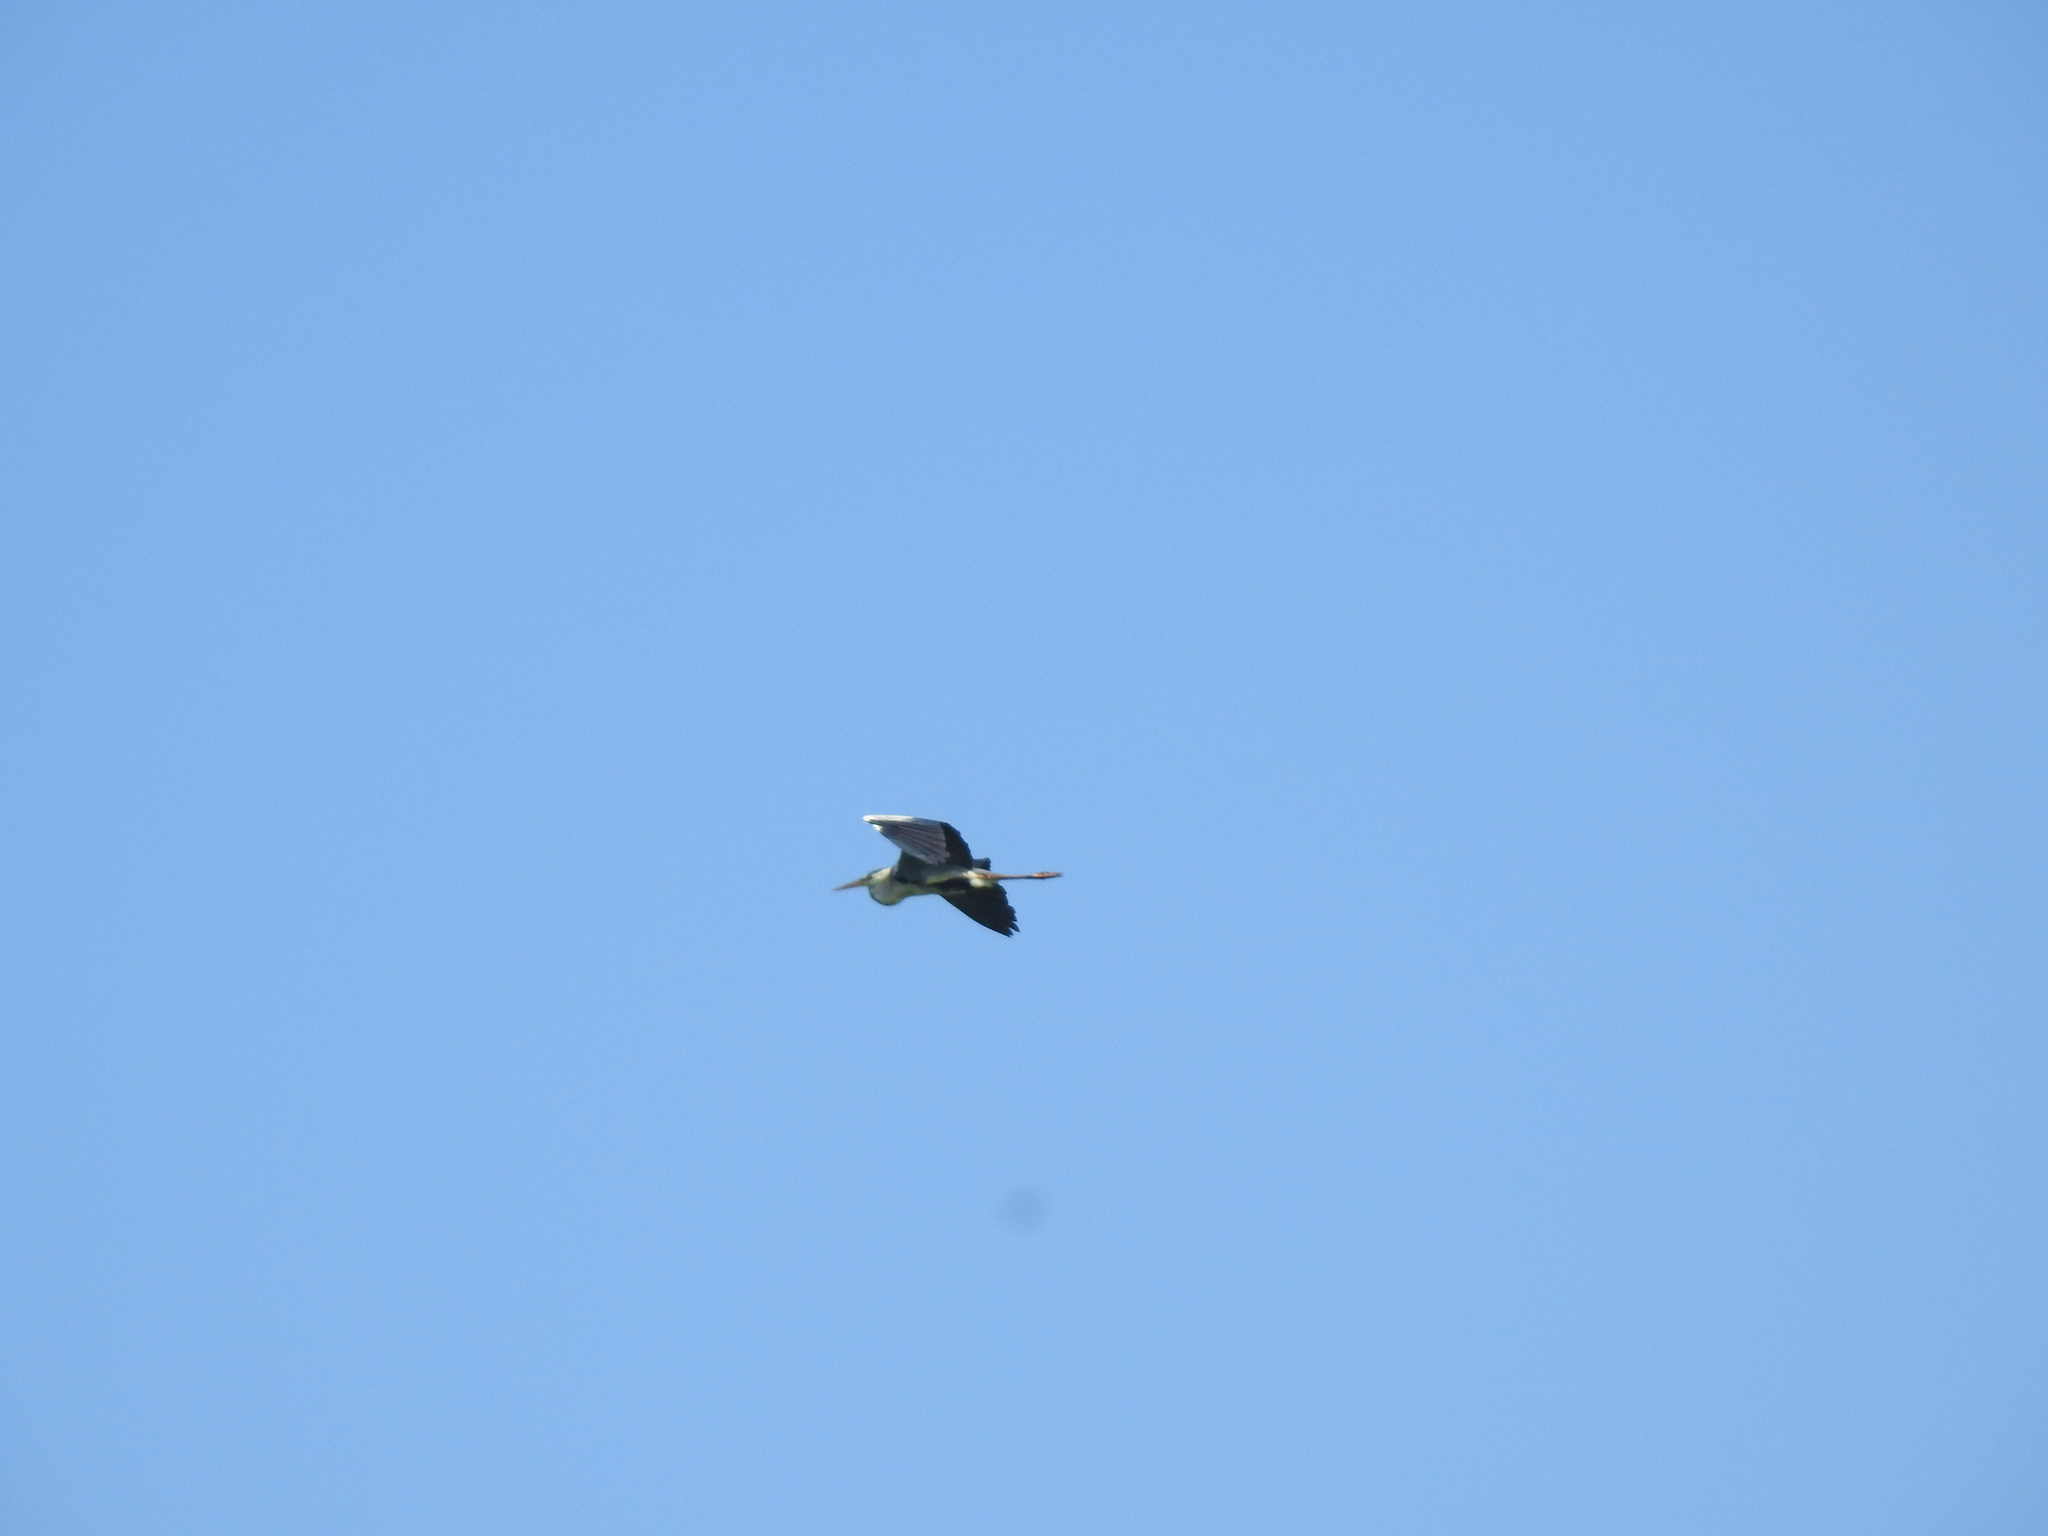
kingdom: Animalia
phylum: Chordata
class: Aves
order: Pelecaniformes
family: Ardeidae
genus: Ardea
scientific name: Ardea cinerea
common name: Grey heron
